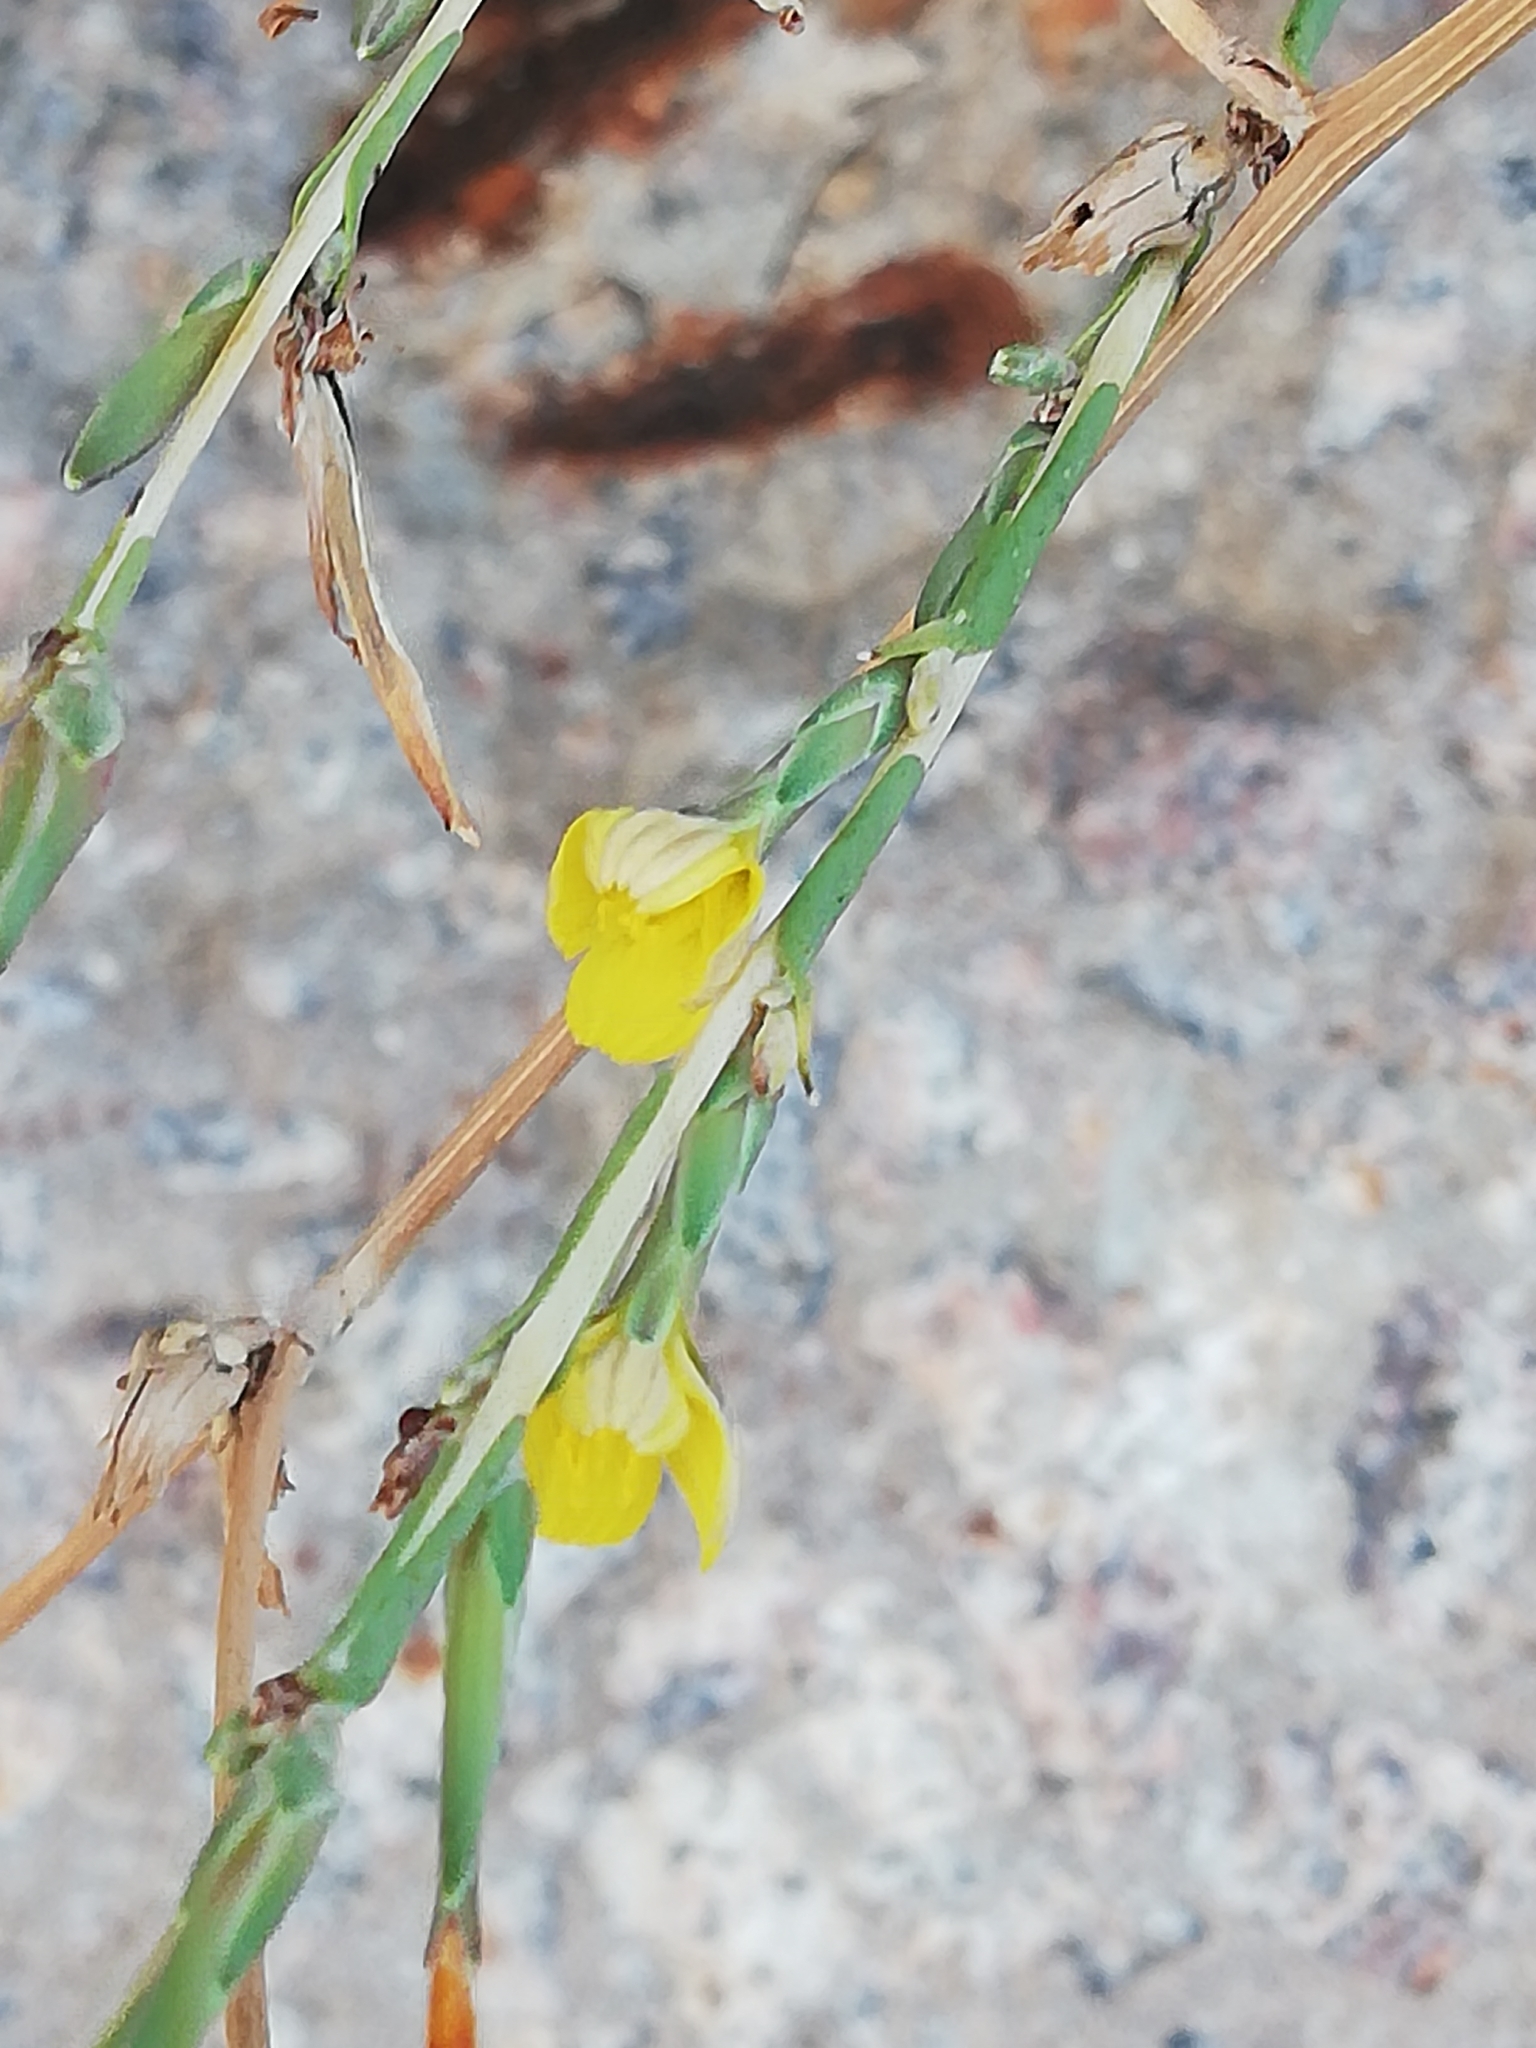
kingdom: Plantae
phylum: Tracheophyta
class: Magnoliopsida
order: Asterales
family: Asteraceae
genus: Lactuca
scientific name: Lactuca viminea
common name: Pliant lettuce
